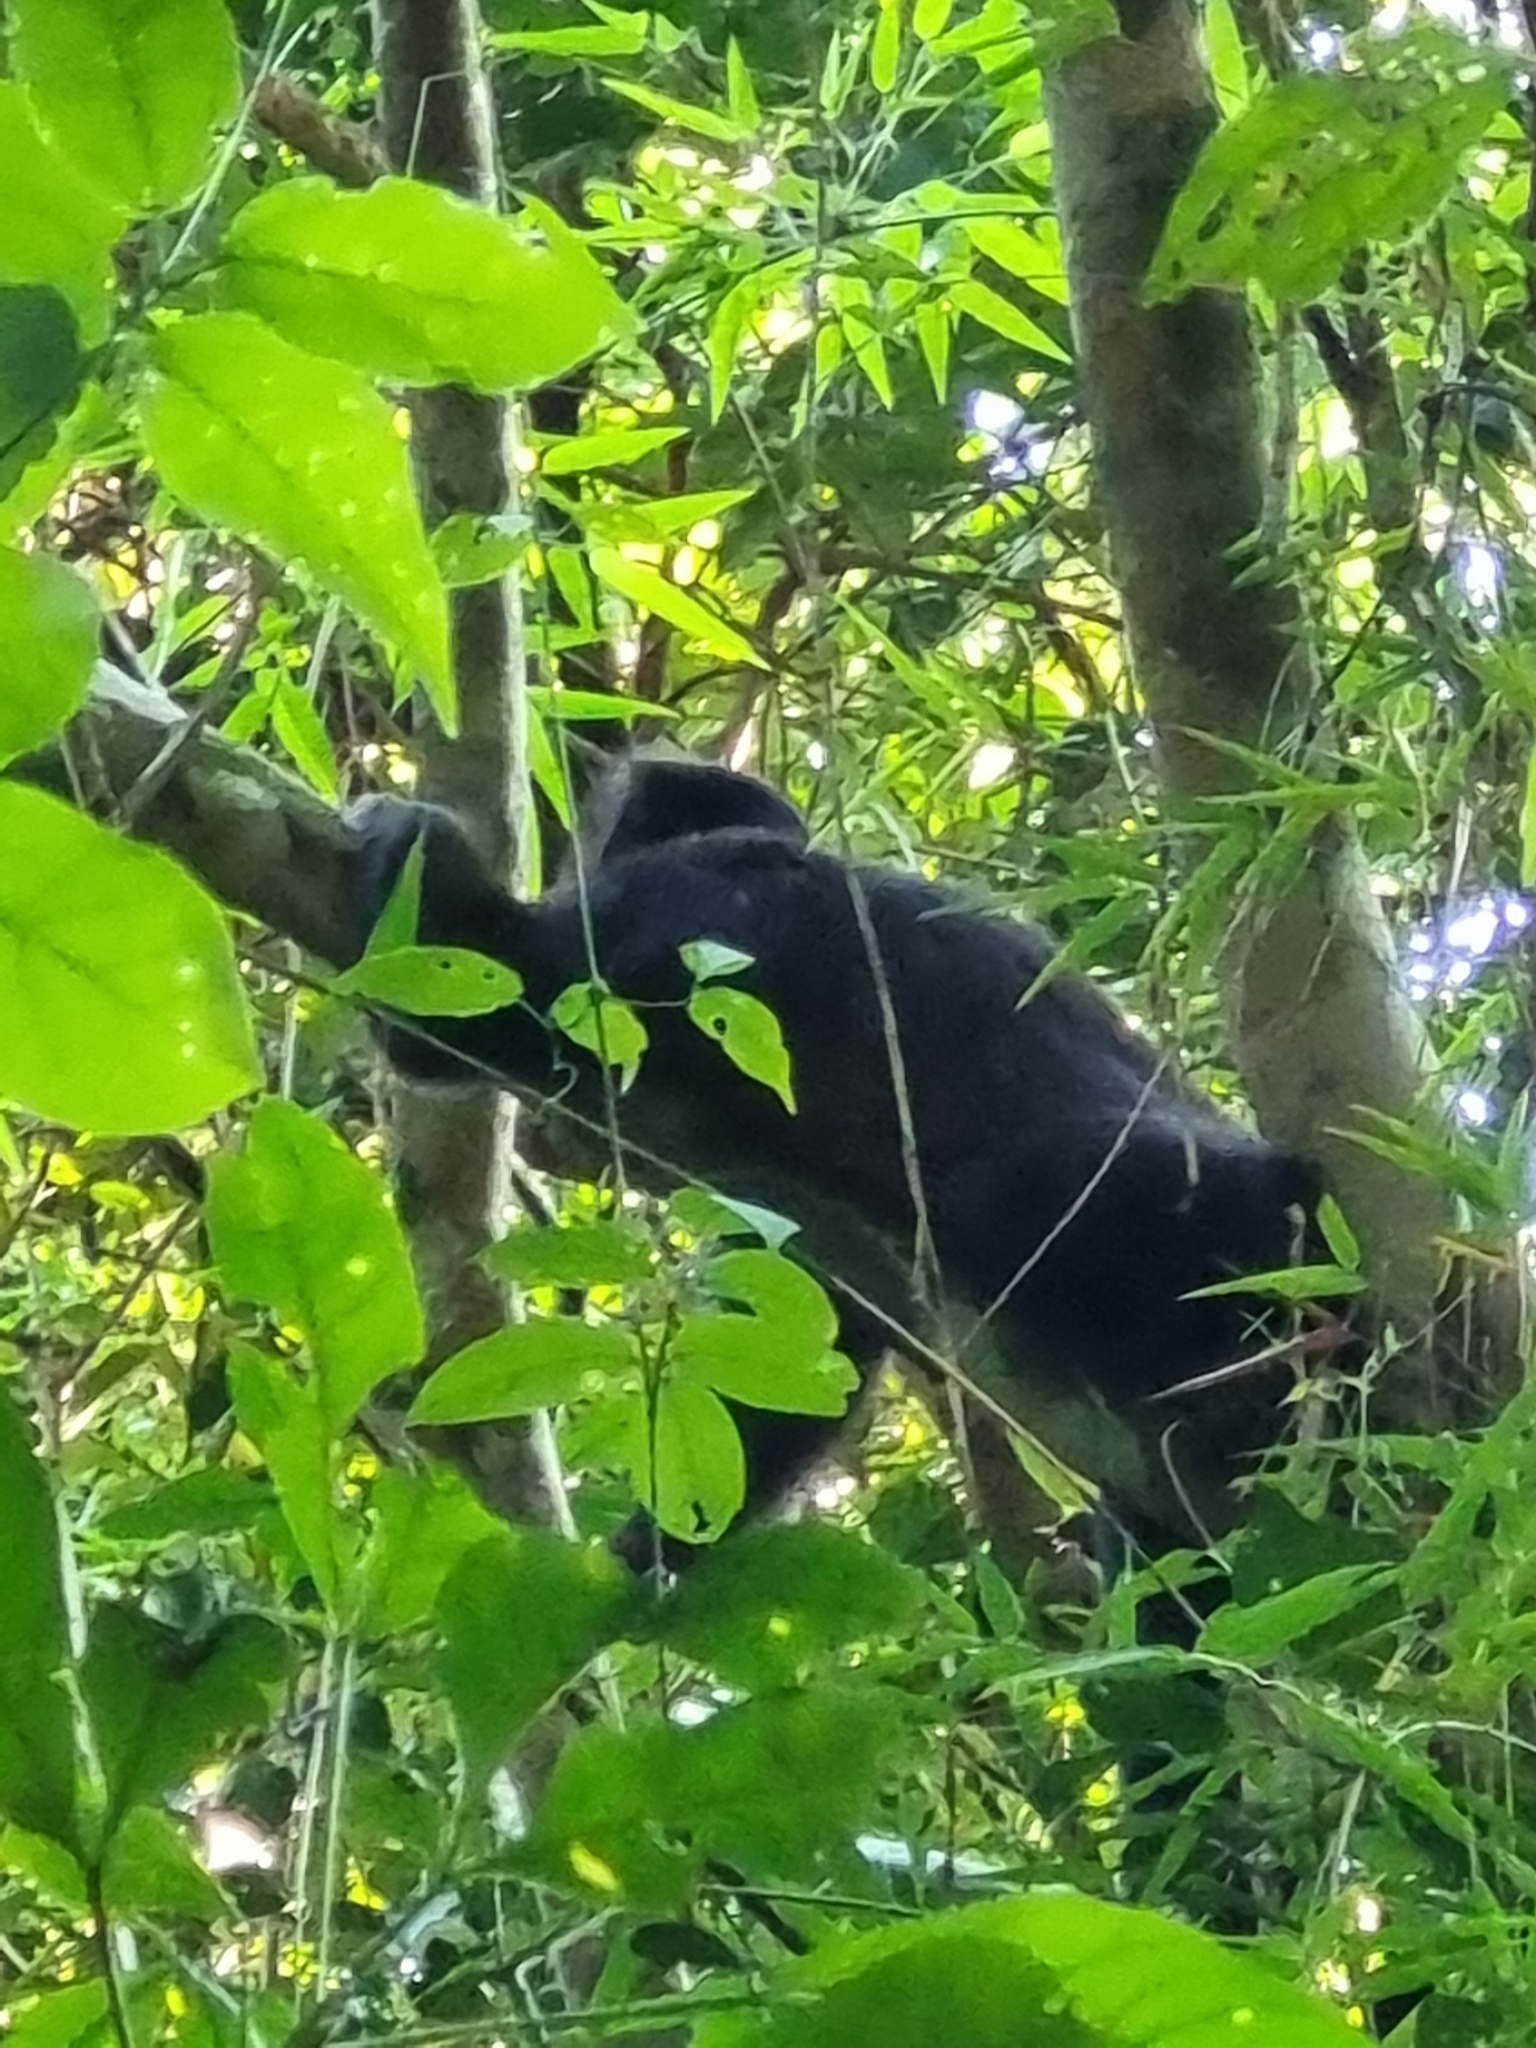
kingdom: Animalia
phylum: Chordata
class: Mammalia
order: Primates
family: Cebidae
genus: Sapajus
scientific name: Sapajus nigritus
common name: Black capuchin
